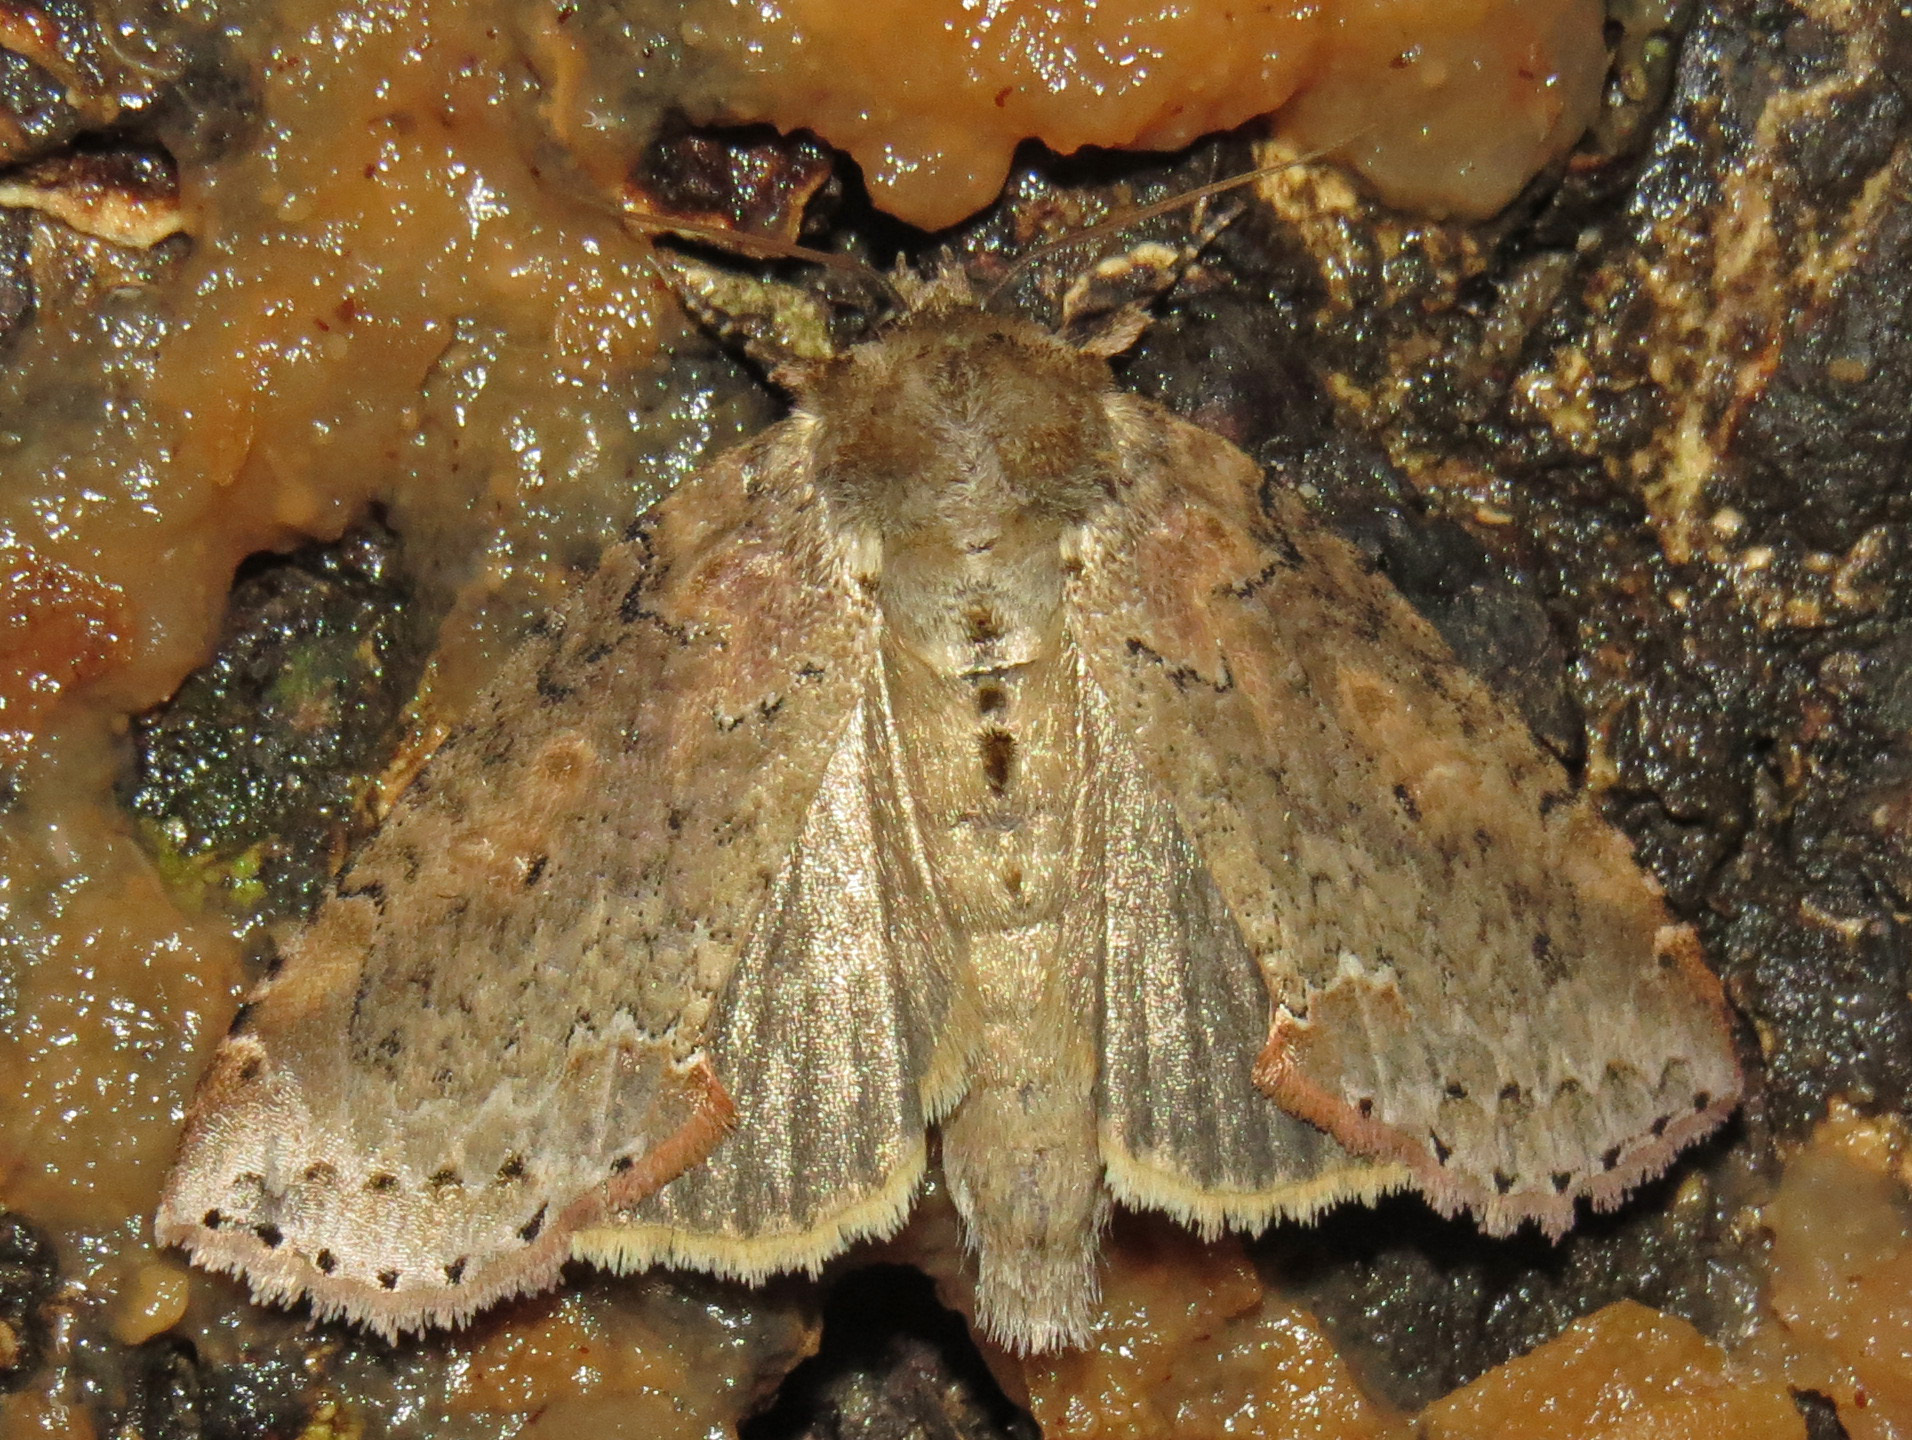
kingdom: Animalia
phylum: Arthropoda
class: Insecta
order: Lepidoptera
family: Drepanidae
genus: Pseudothyatira
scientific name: Pseudothyatira cymatophoroides
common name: Tufted thyatirid moth
